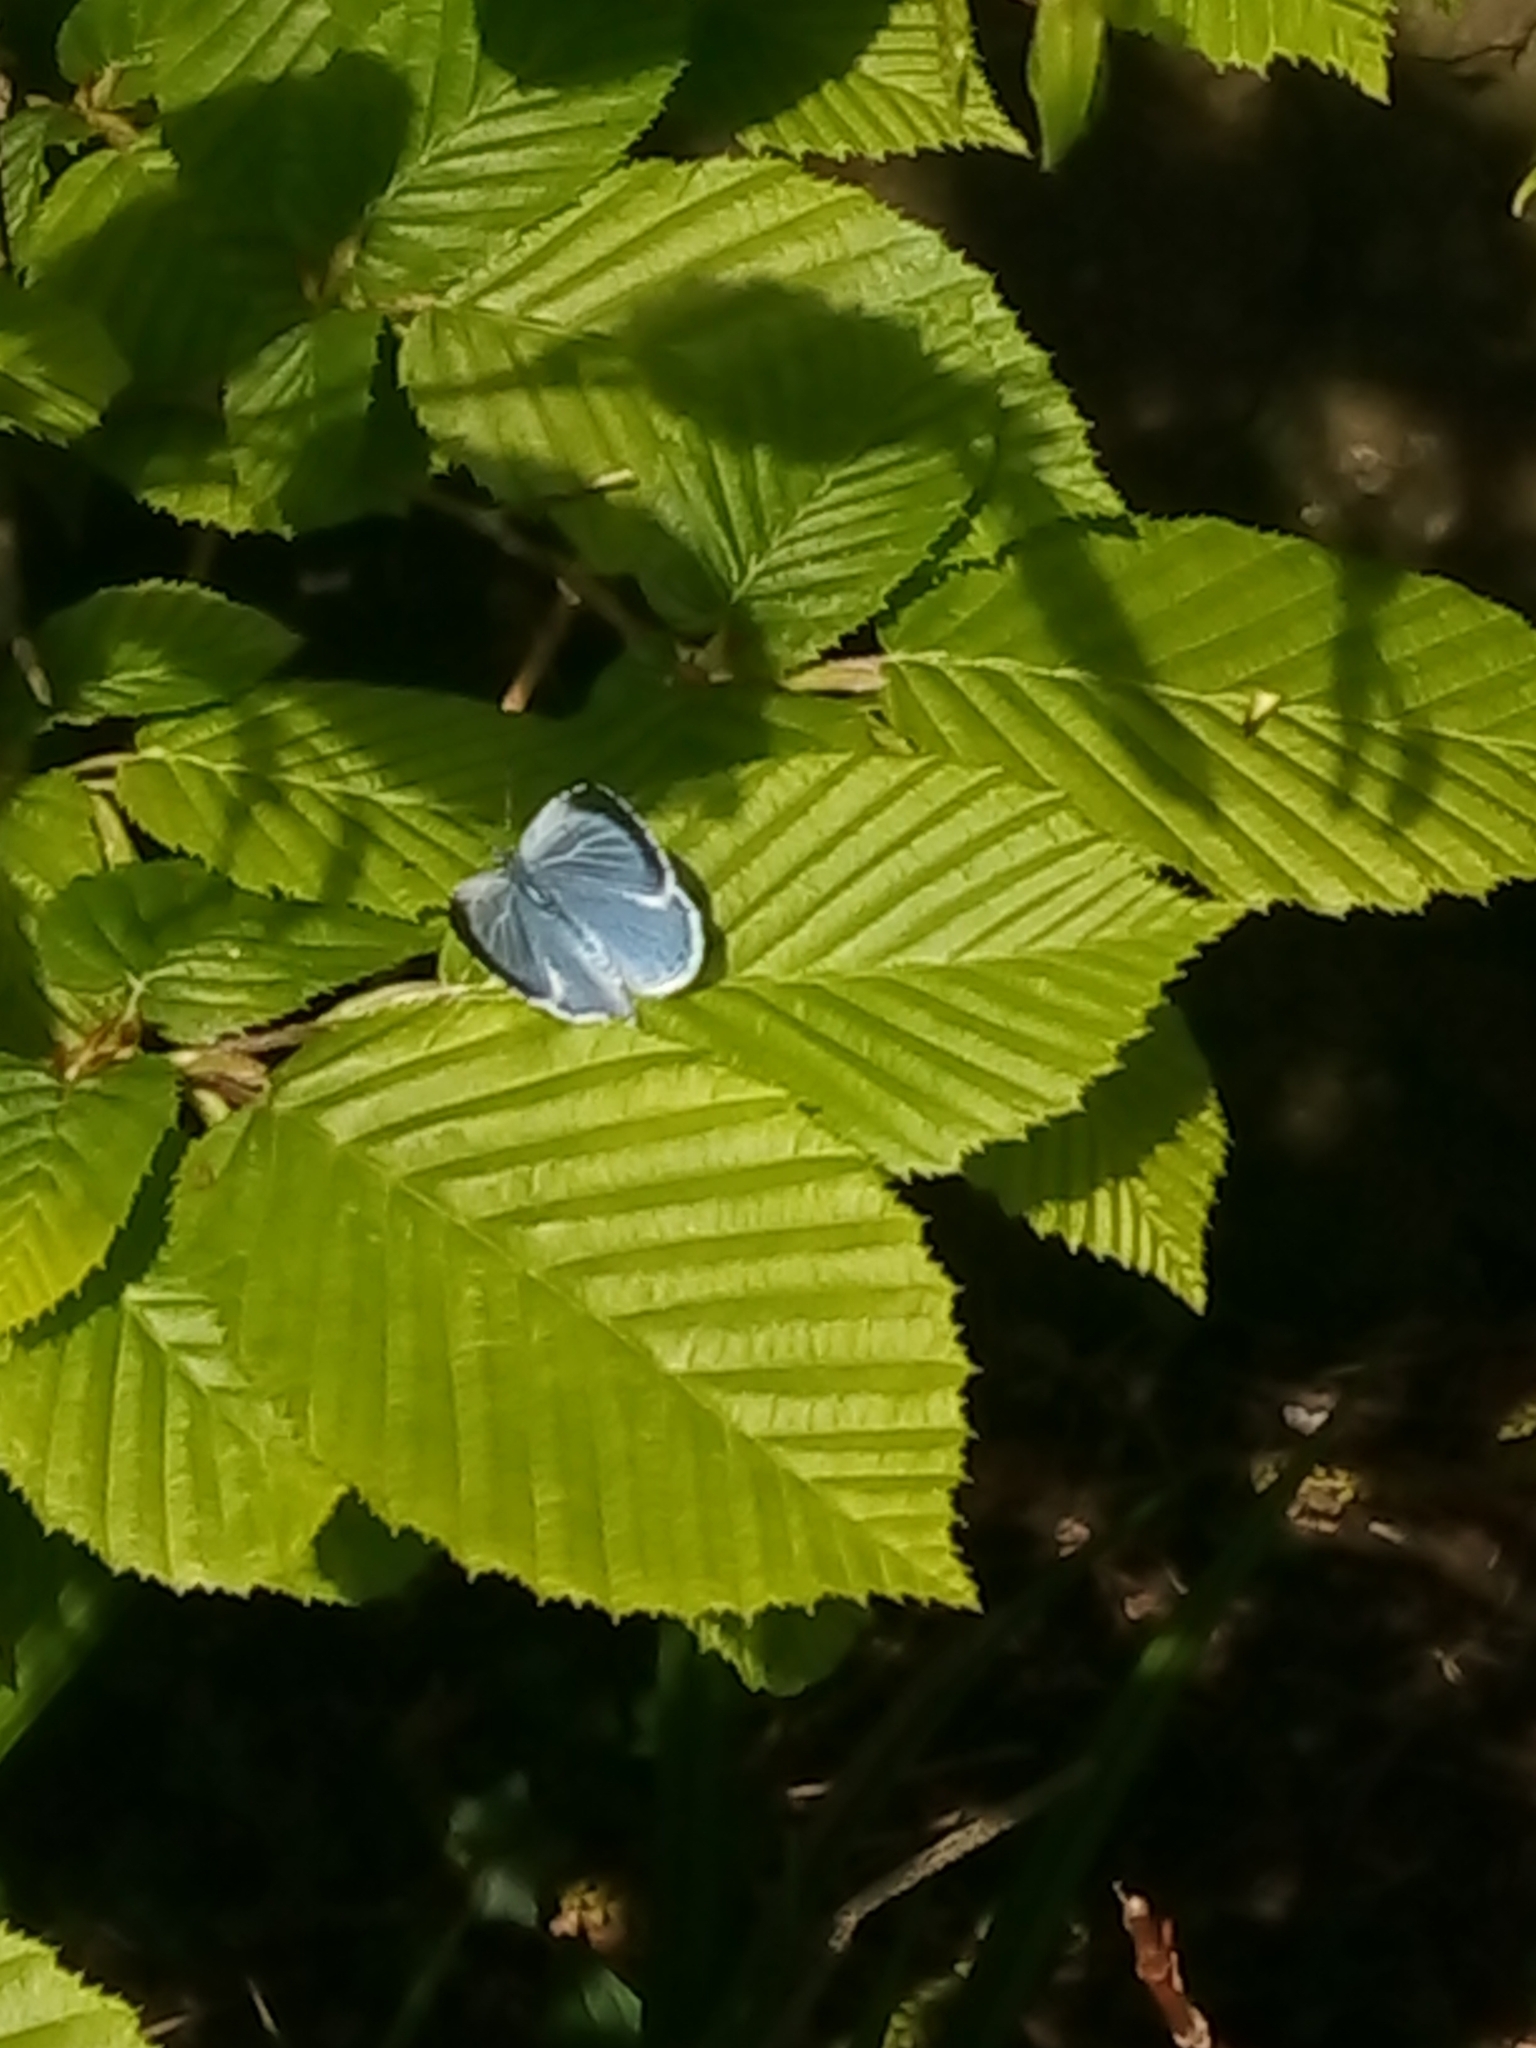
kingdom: Animalia
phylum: Arthropoda
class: Insecta
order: Lepidoptera
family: Lycaenidae
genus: Celastrina
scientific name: Celastrina argiolus
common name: Holly blue
